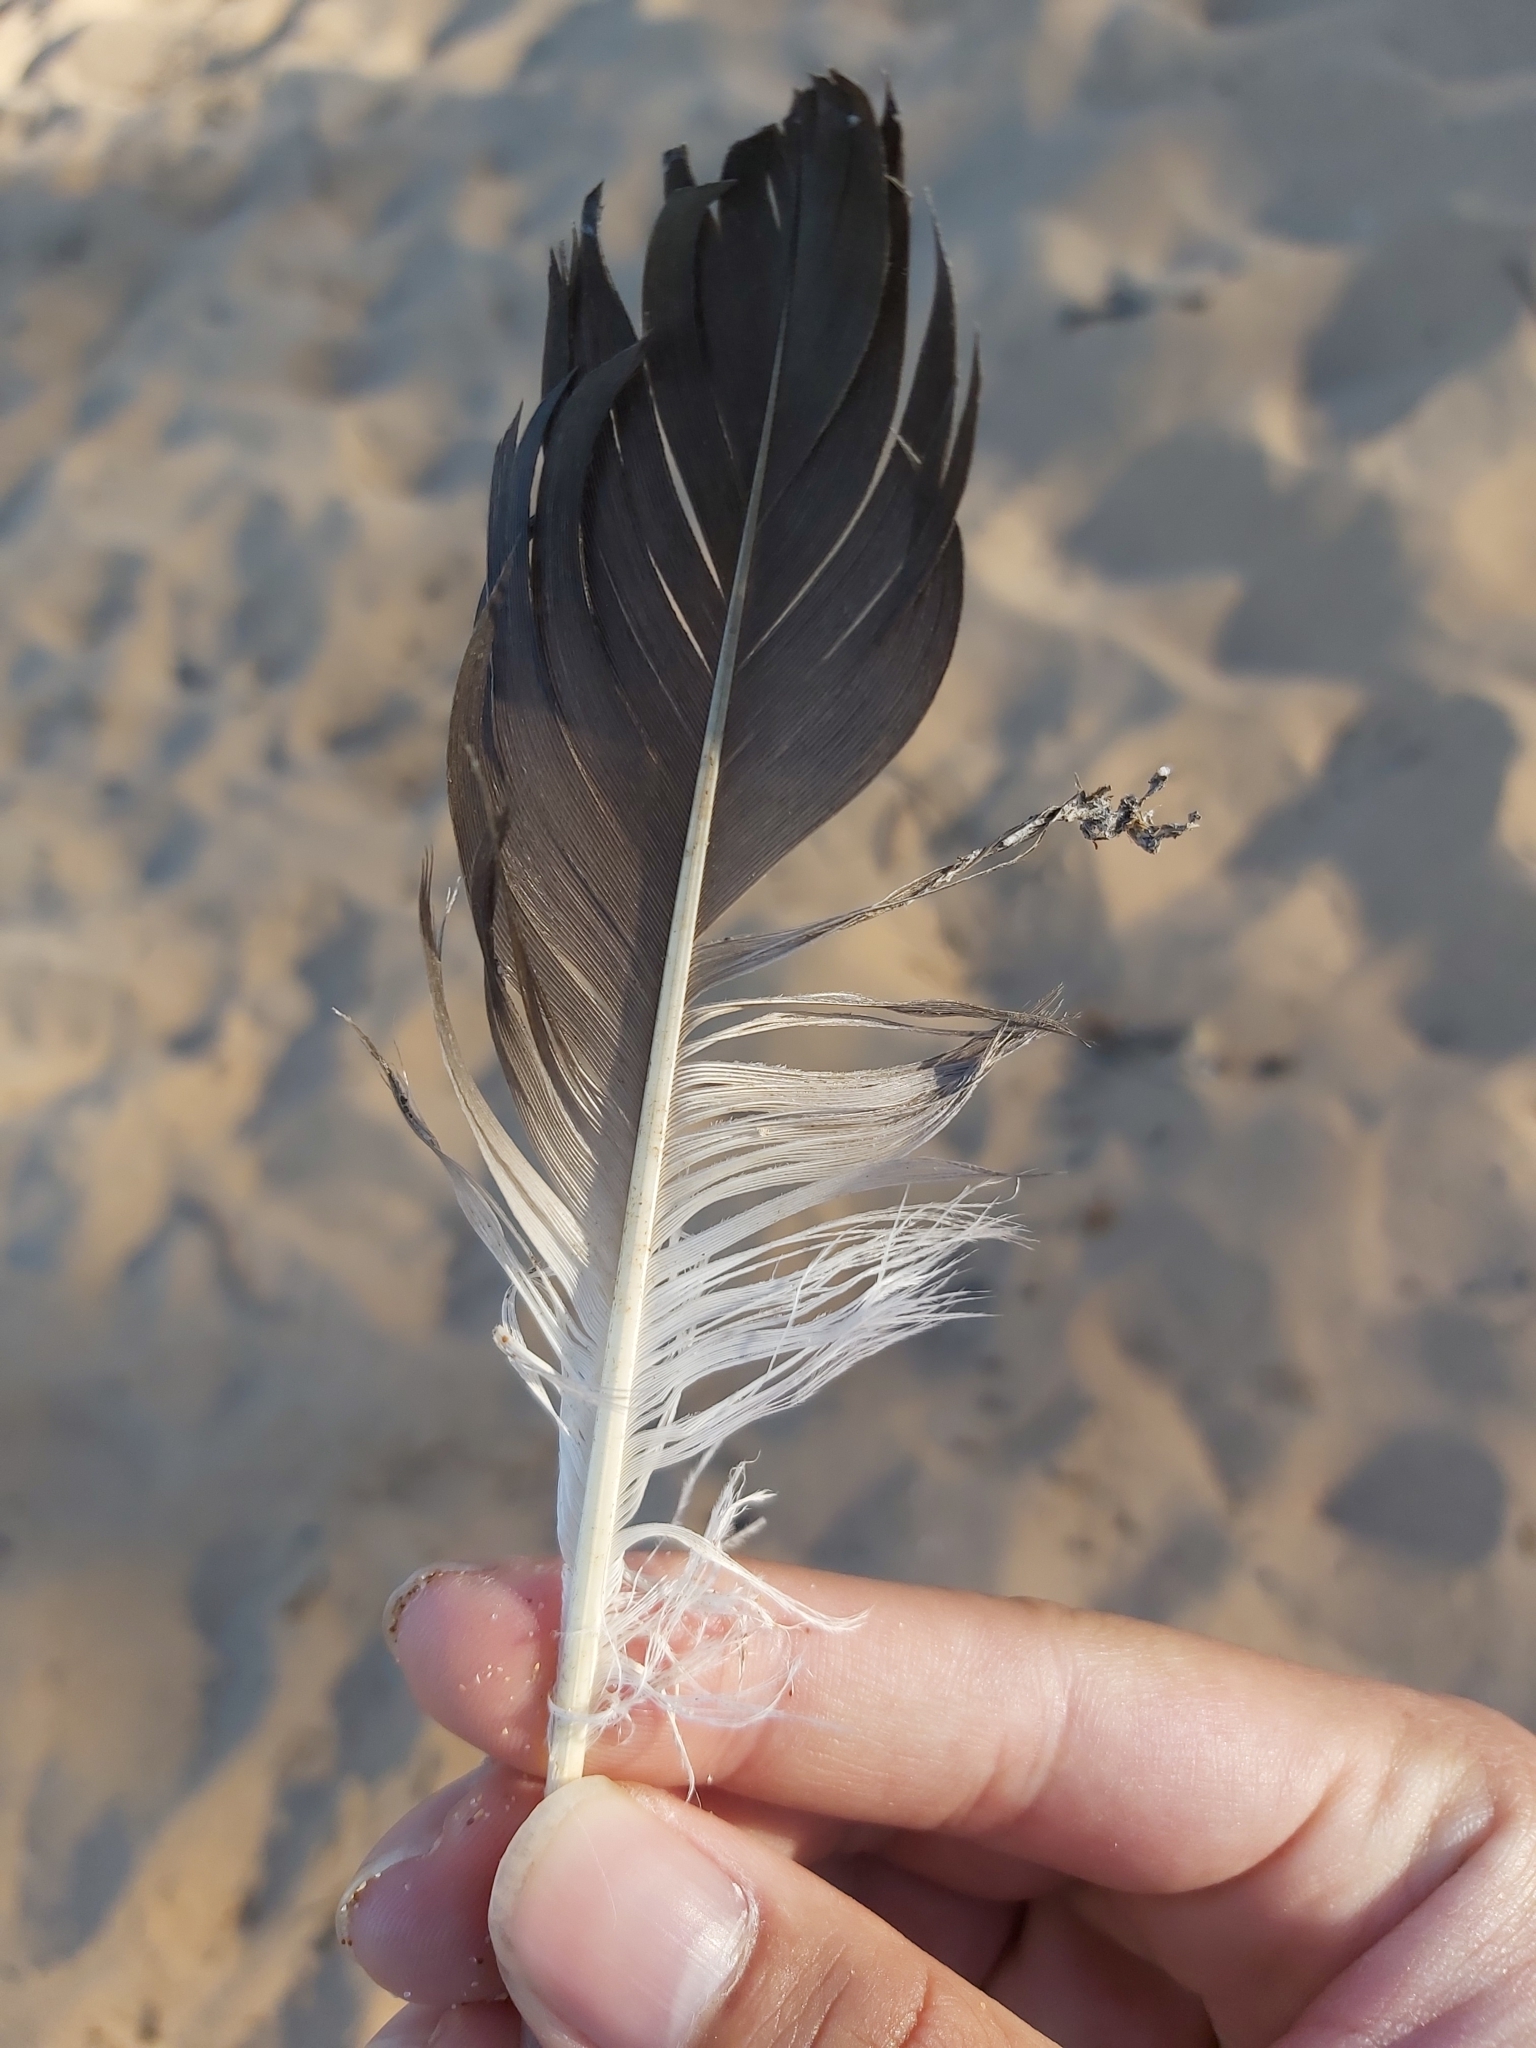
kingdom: Animalia
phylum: Chordata
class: Aves
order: Suliformes
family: Sulidae
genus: Morus
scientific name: Morus serrator
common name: Australasian gannet
